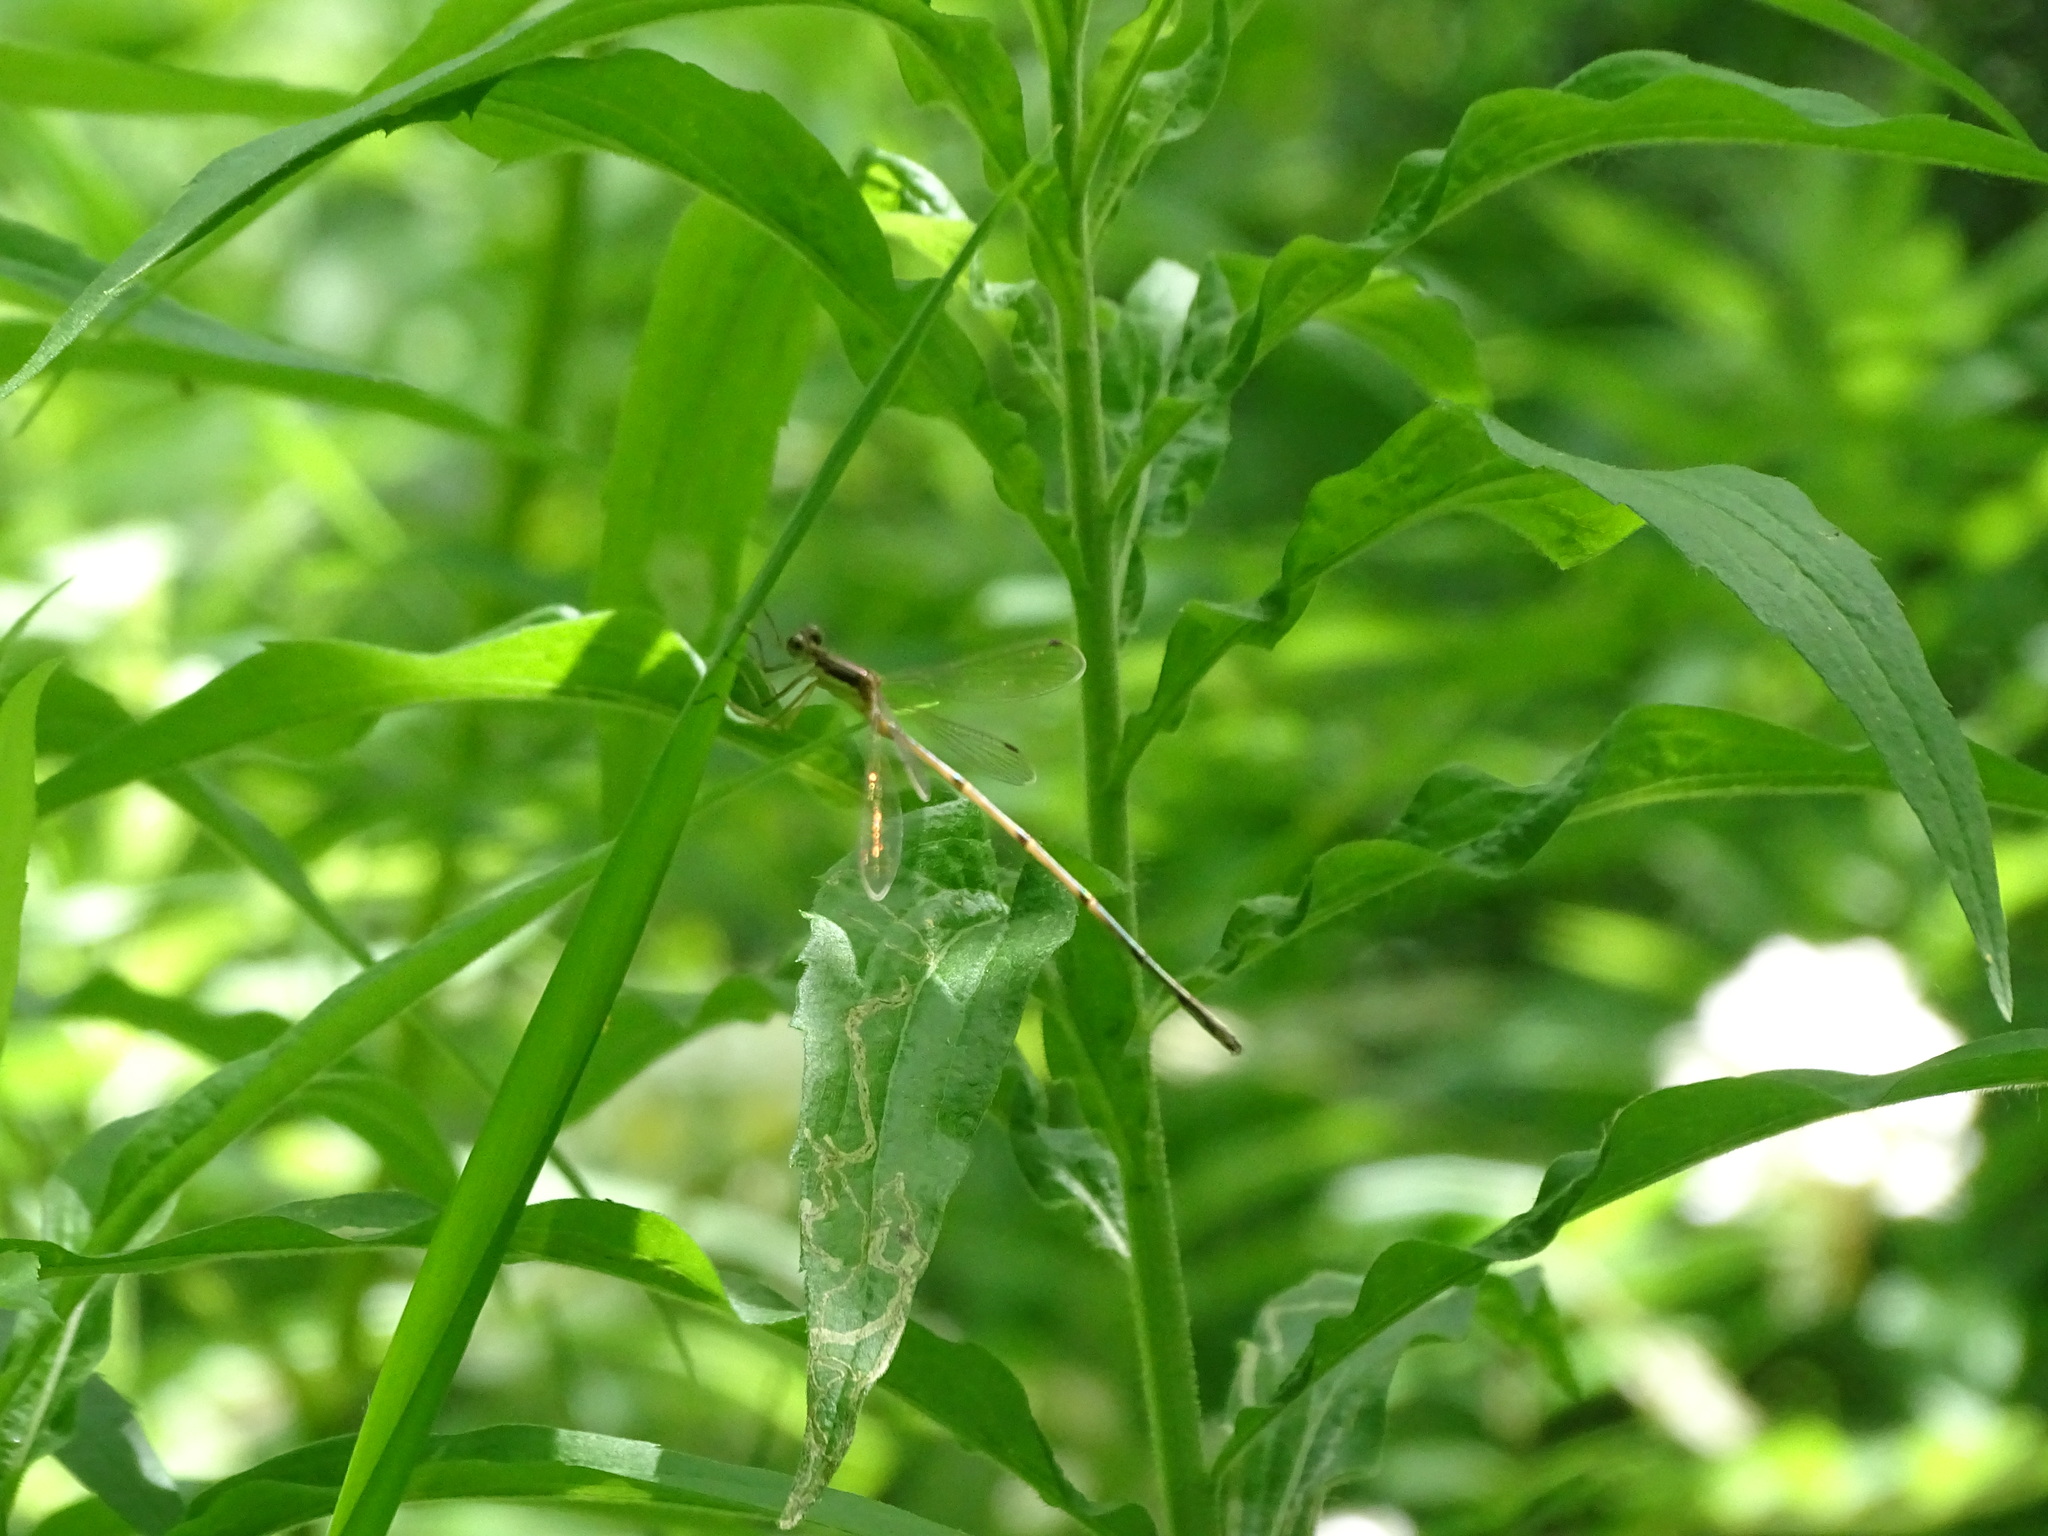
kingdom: Animalia
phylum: Arthropoda
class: Insecta
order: Odonata
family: Lestidae
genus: Lestes
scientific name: Lestes rectangularis
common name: Slender spreadwing
